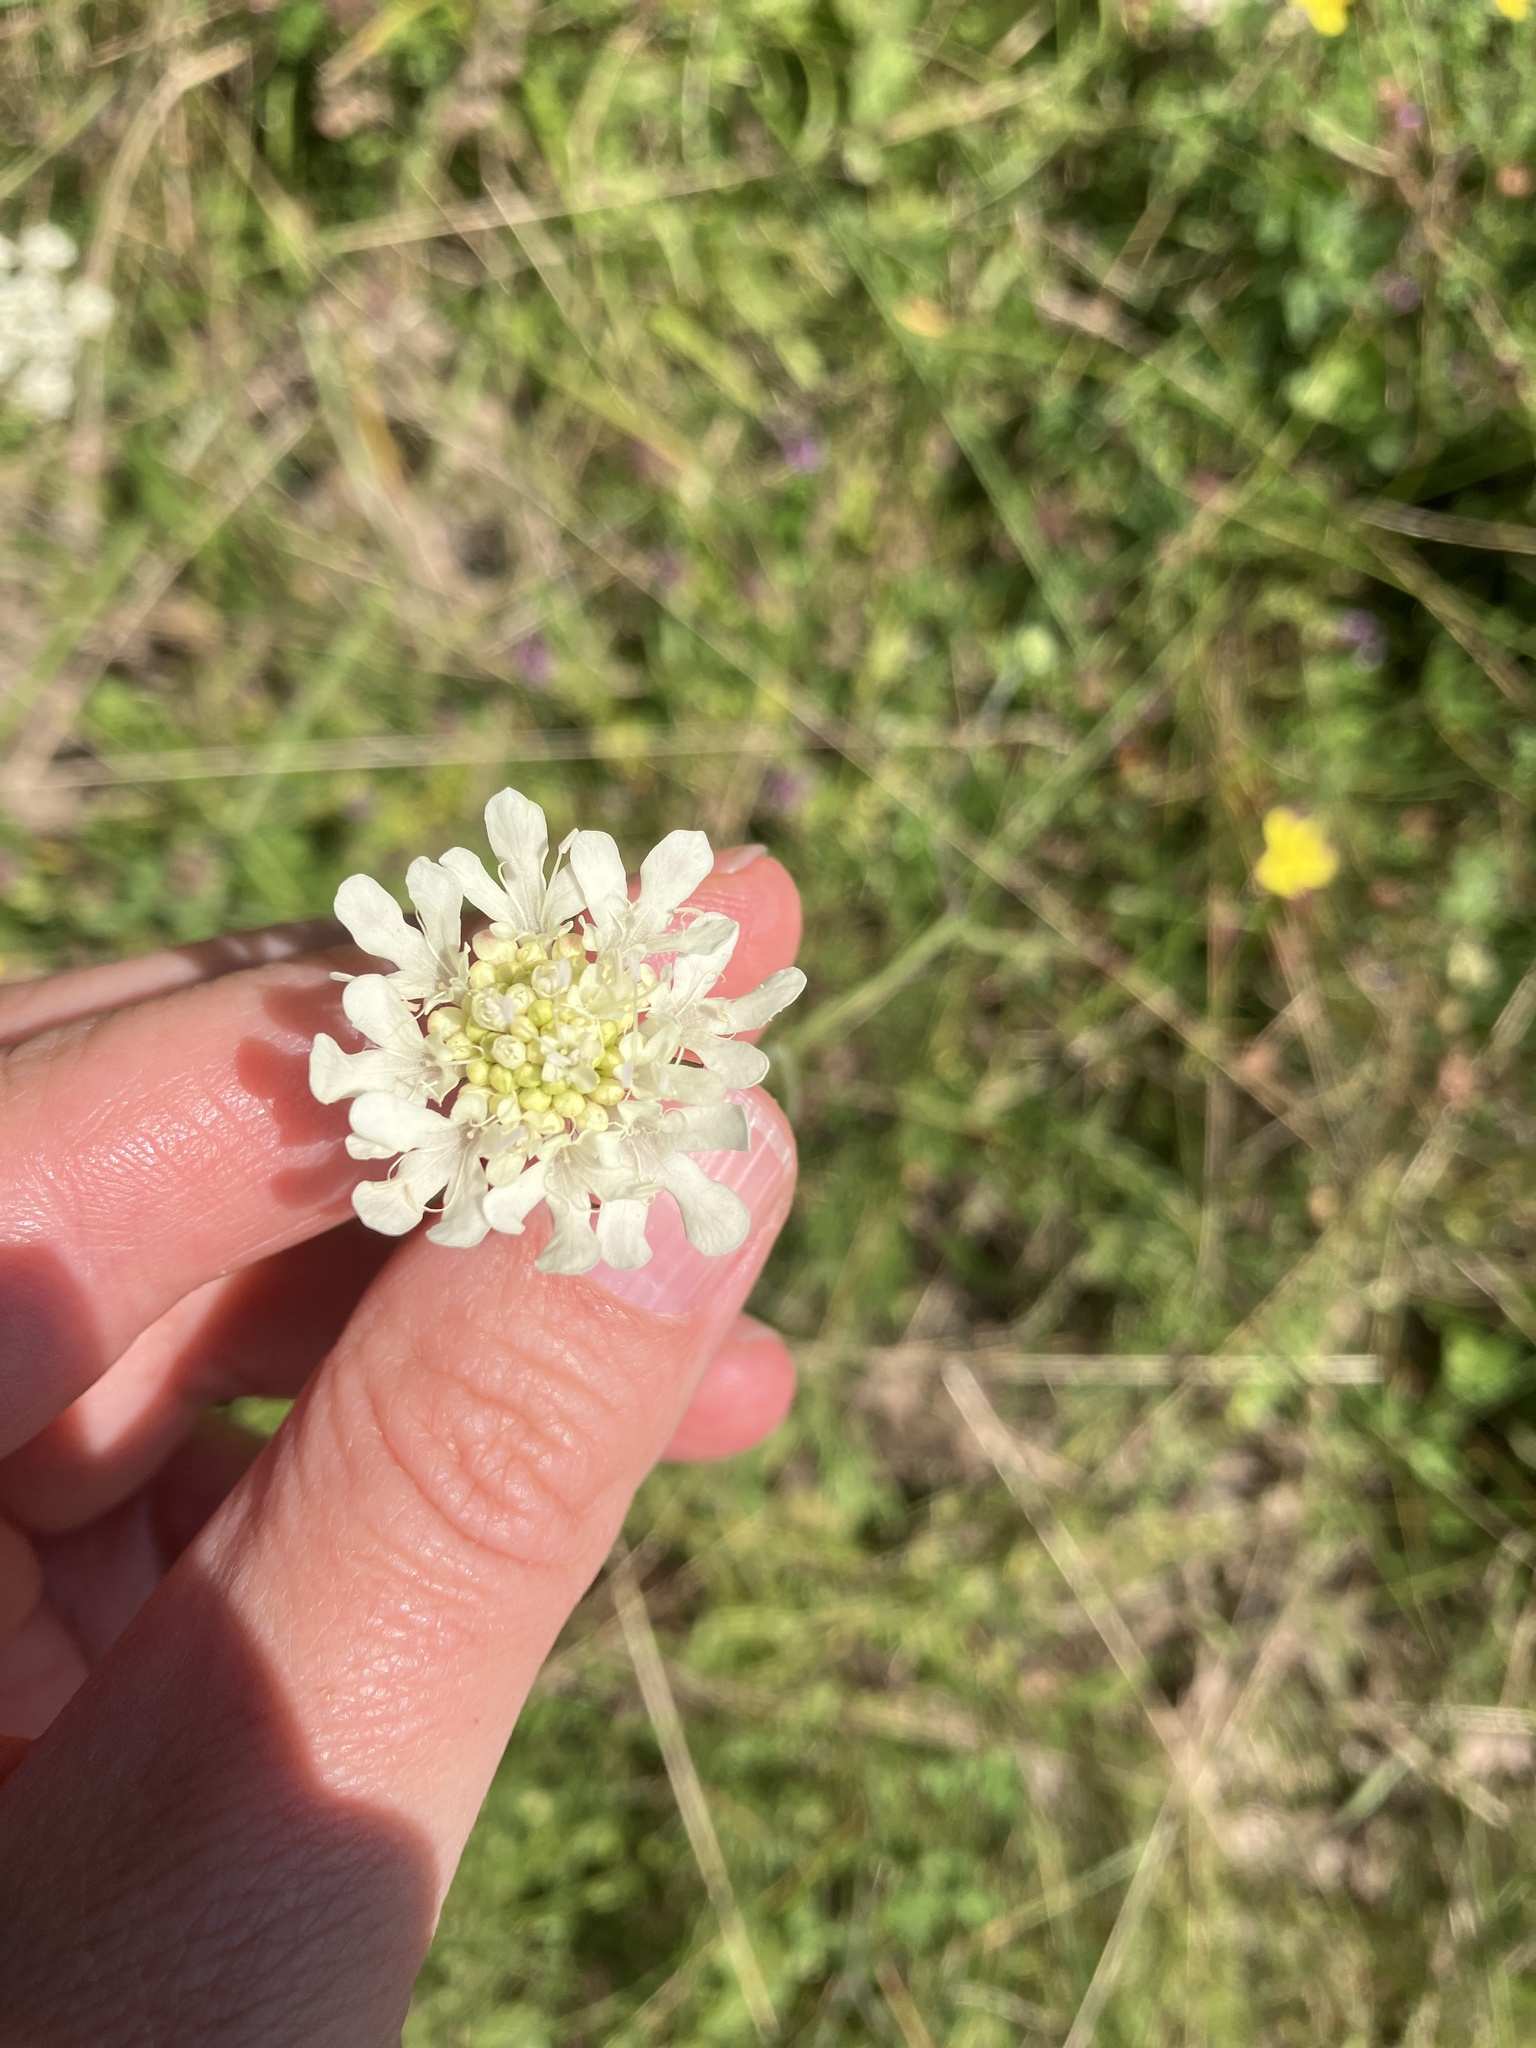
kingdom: Plantae
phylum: Tracheophyta
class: Magnoliopsida
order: Dipsacales
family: Caprifoliaceae
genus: Scabiosa
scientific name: Scabiosa ochroleuca
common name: Cream pincushions
